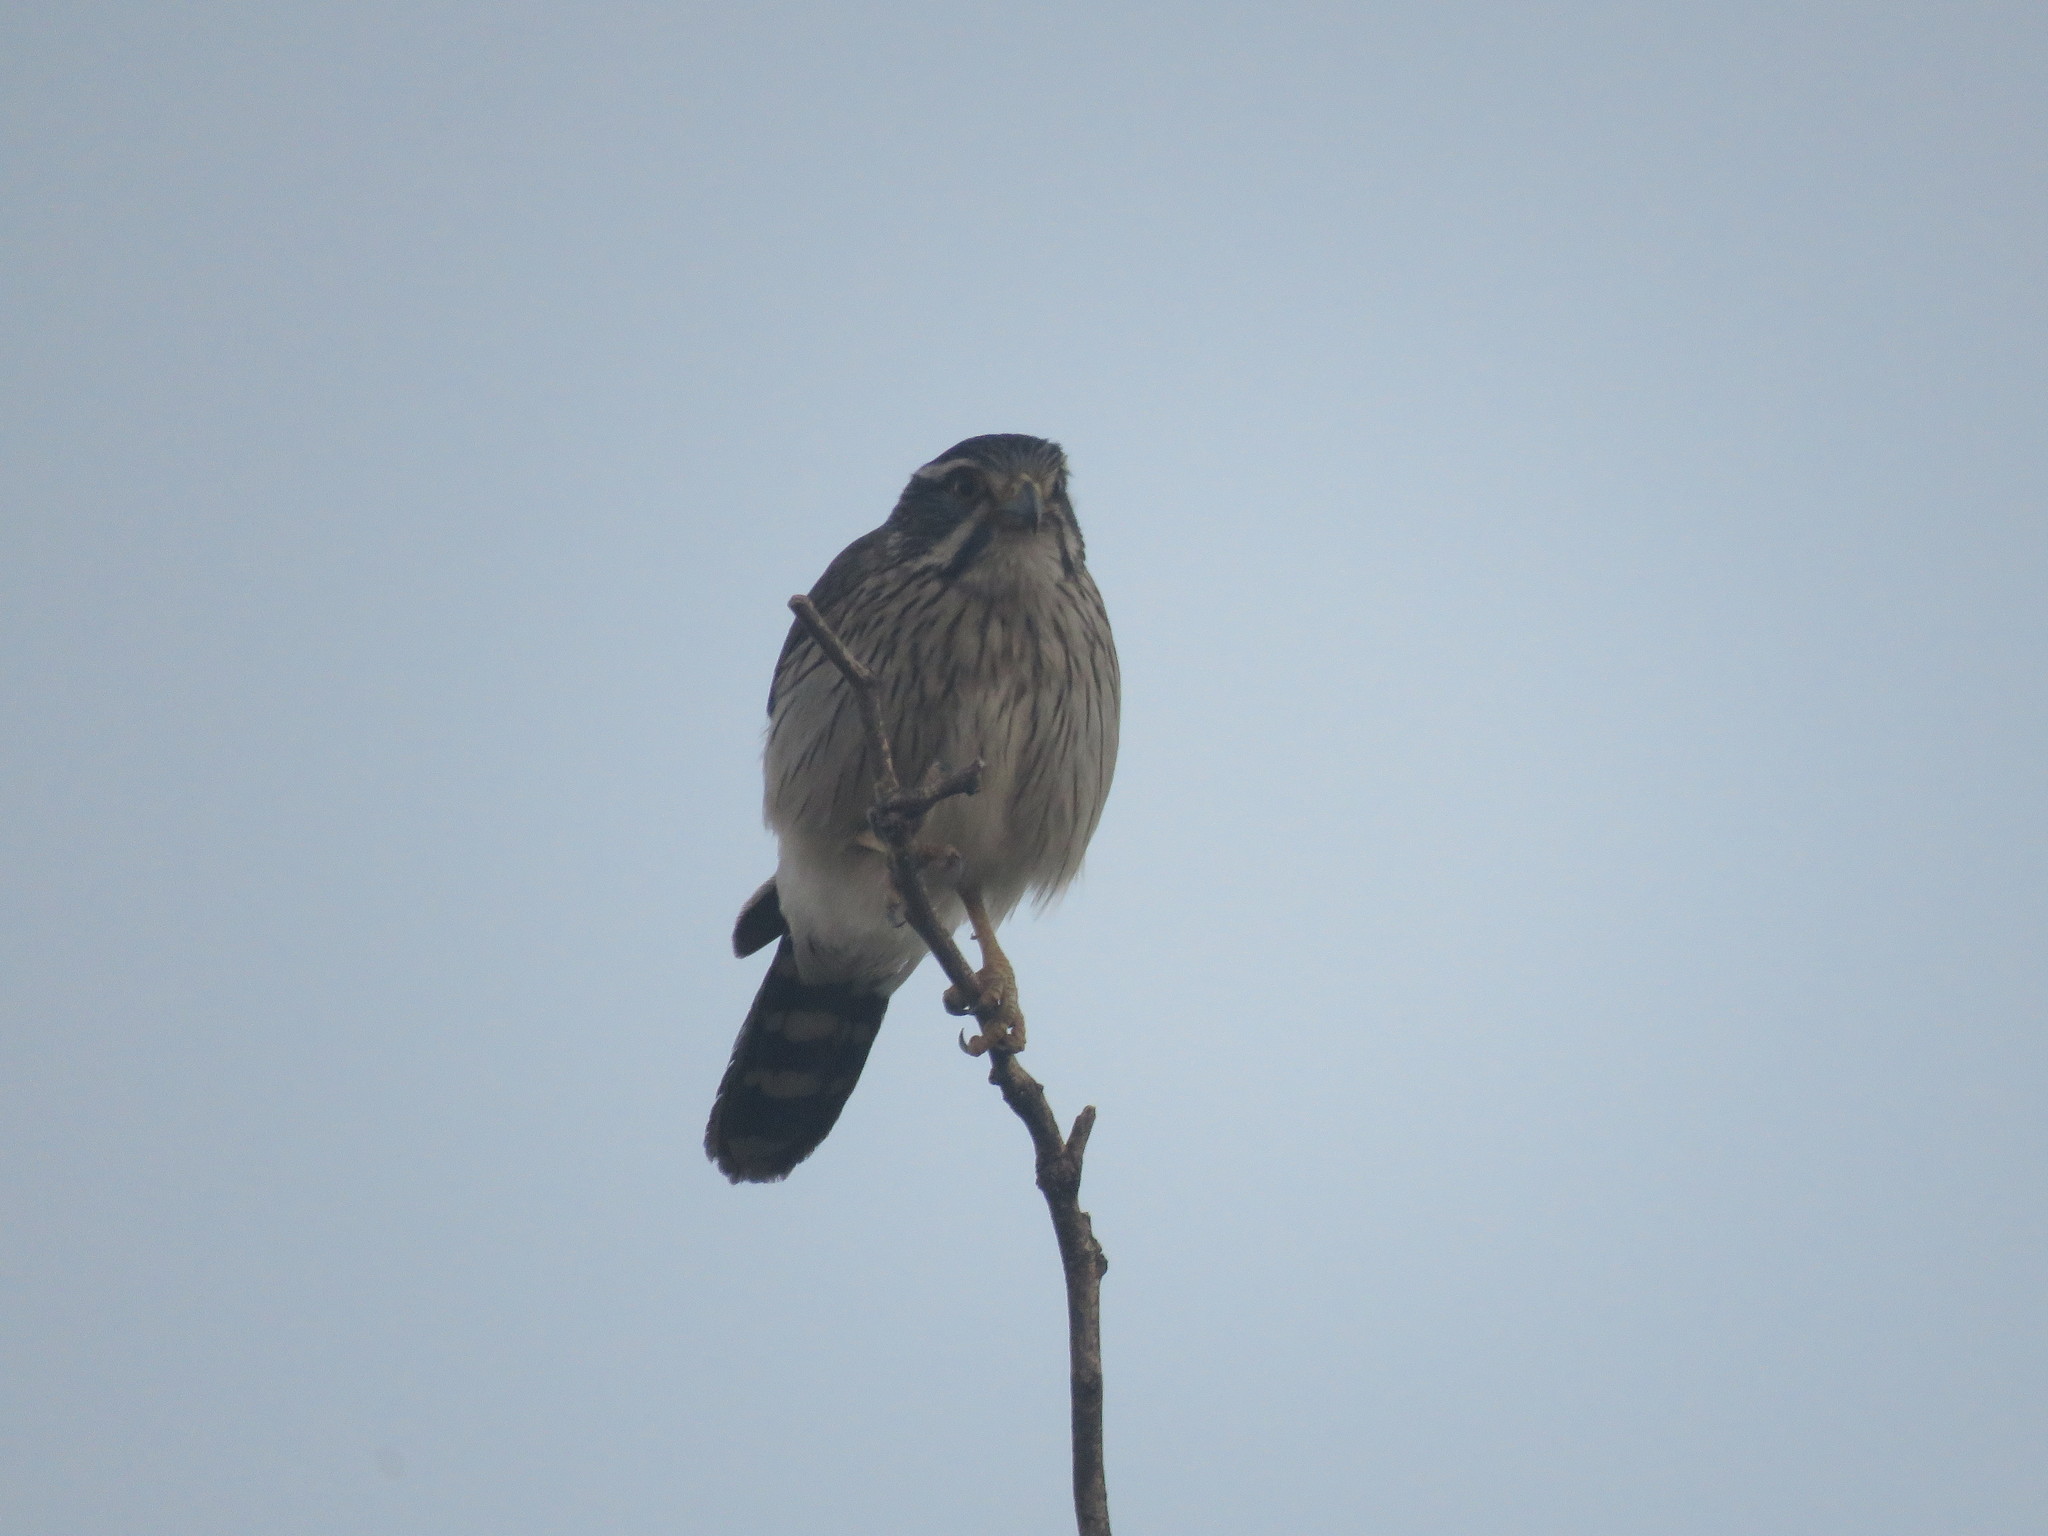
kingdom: Animalia
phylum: Chordata
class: Aves
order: Falconiformes
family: Falconidae
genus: Spiziapteryx
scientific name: Spiziapteryx circumcincta
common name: Spot-winged falconet
